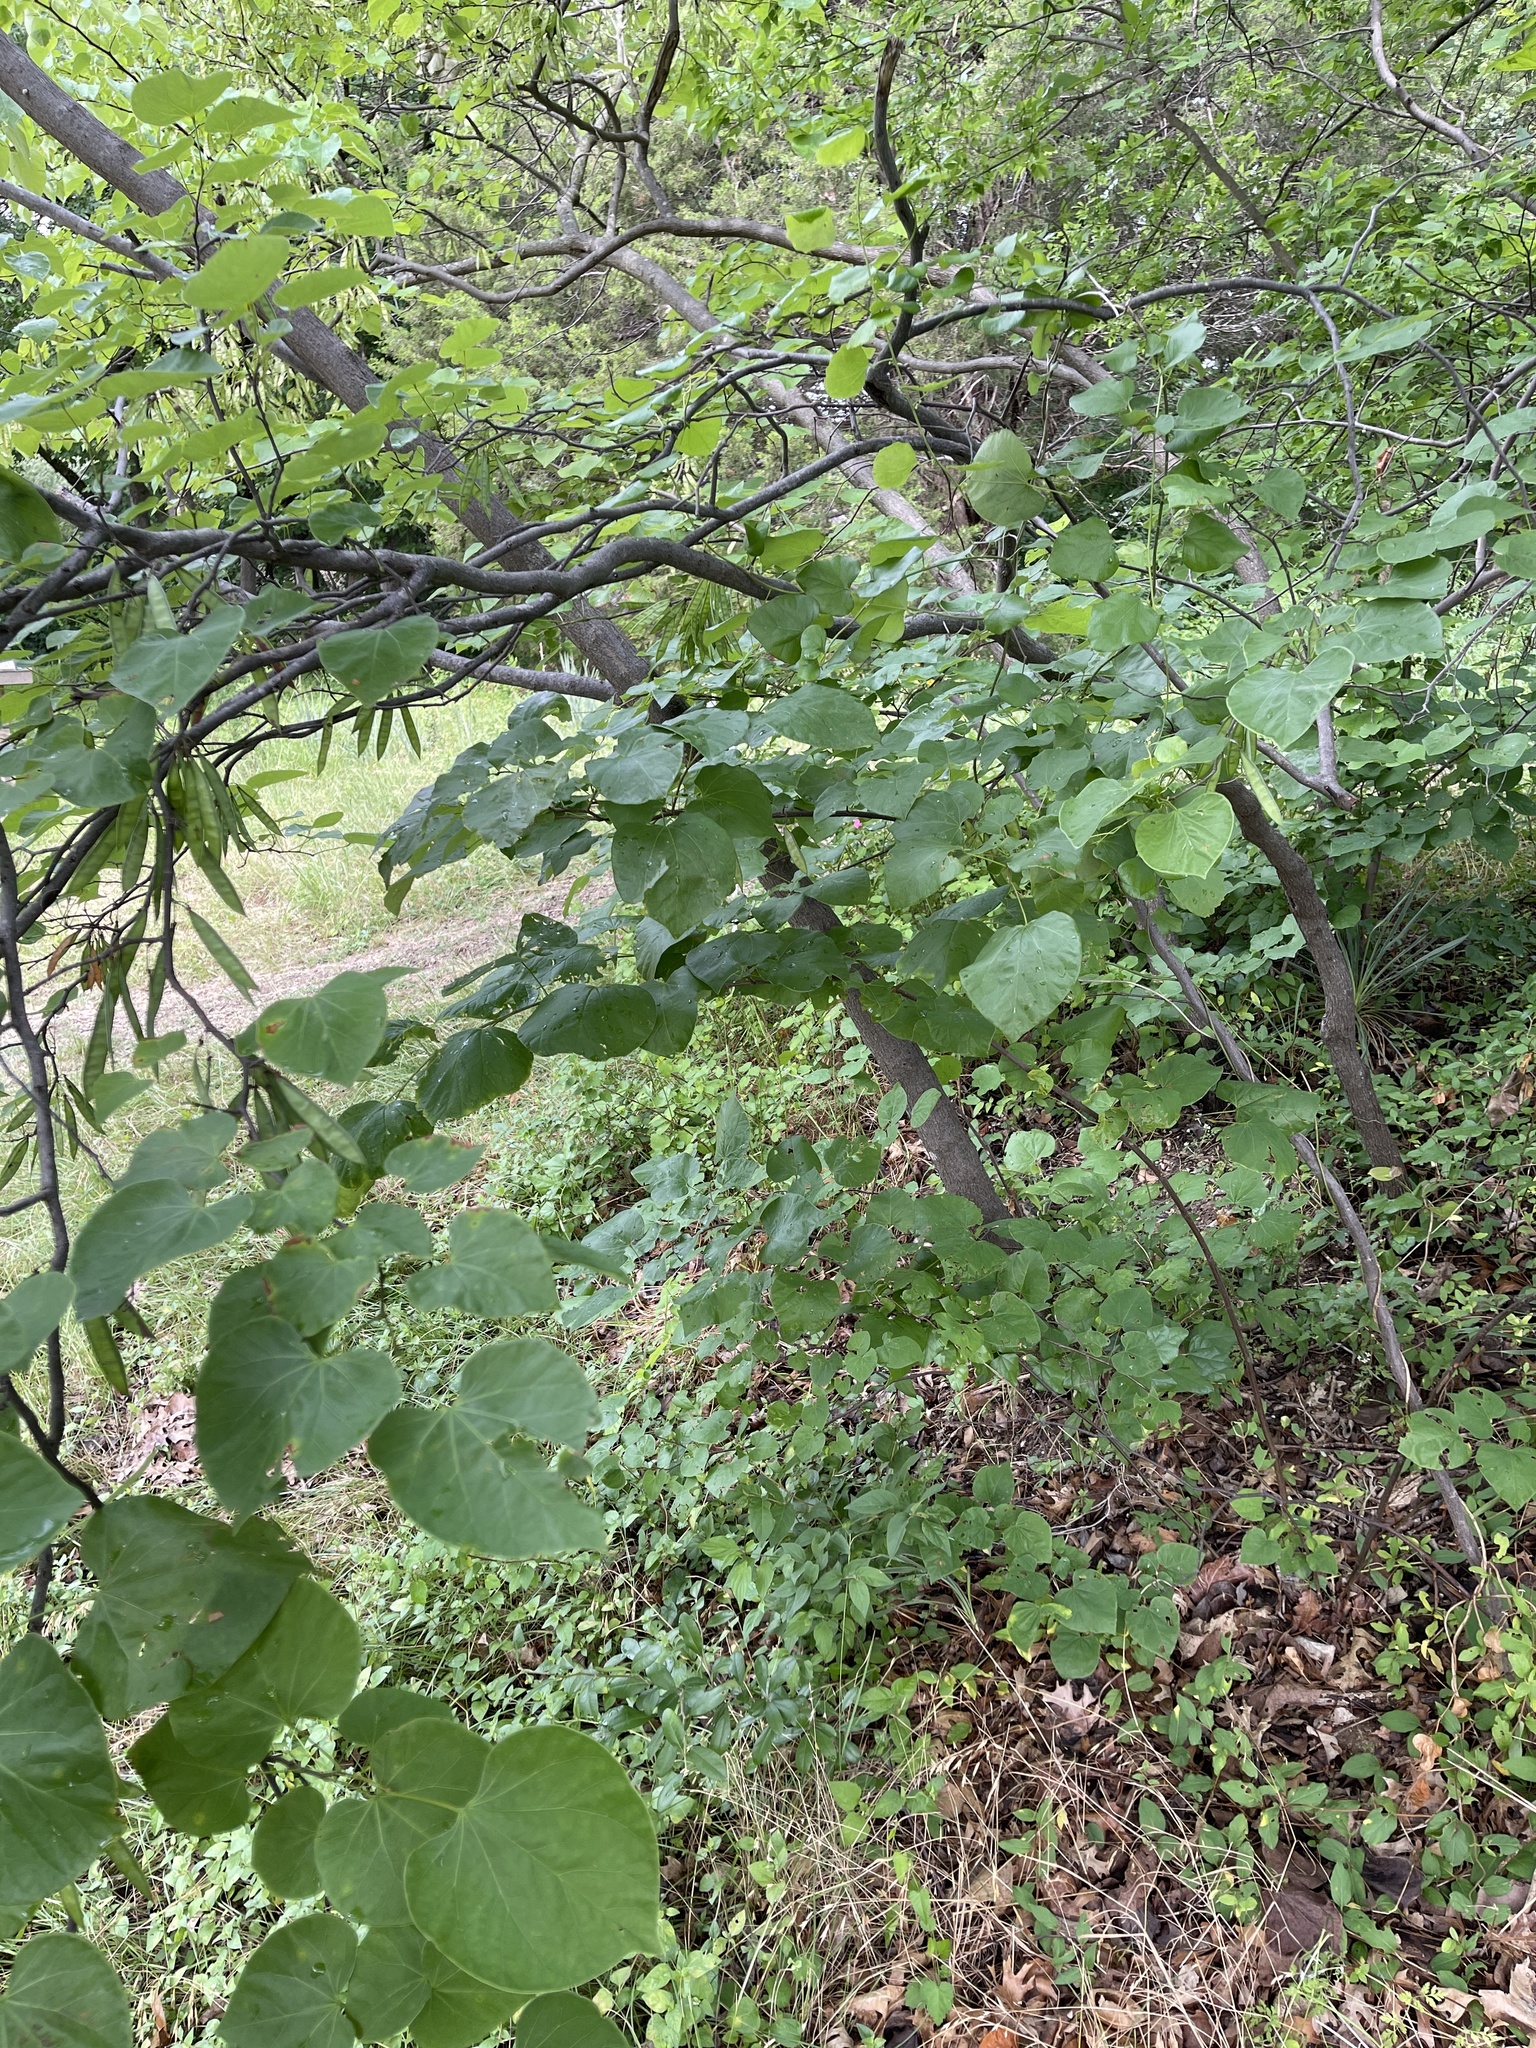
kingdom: Plantae
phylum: Tracheophyta
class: Magnoliopsida
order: Fabales
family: Fabaceae
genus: Cercis
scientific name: Cercis canadensis
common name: Eastern redbud
